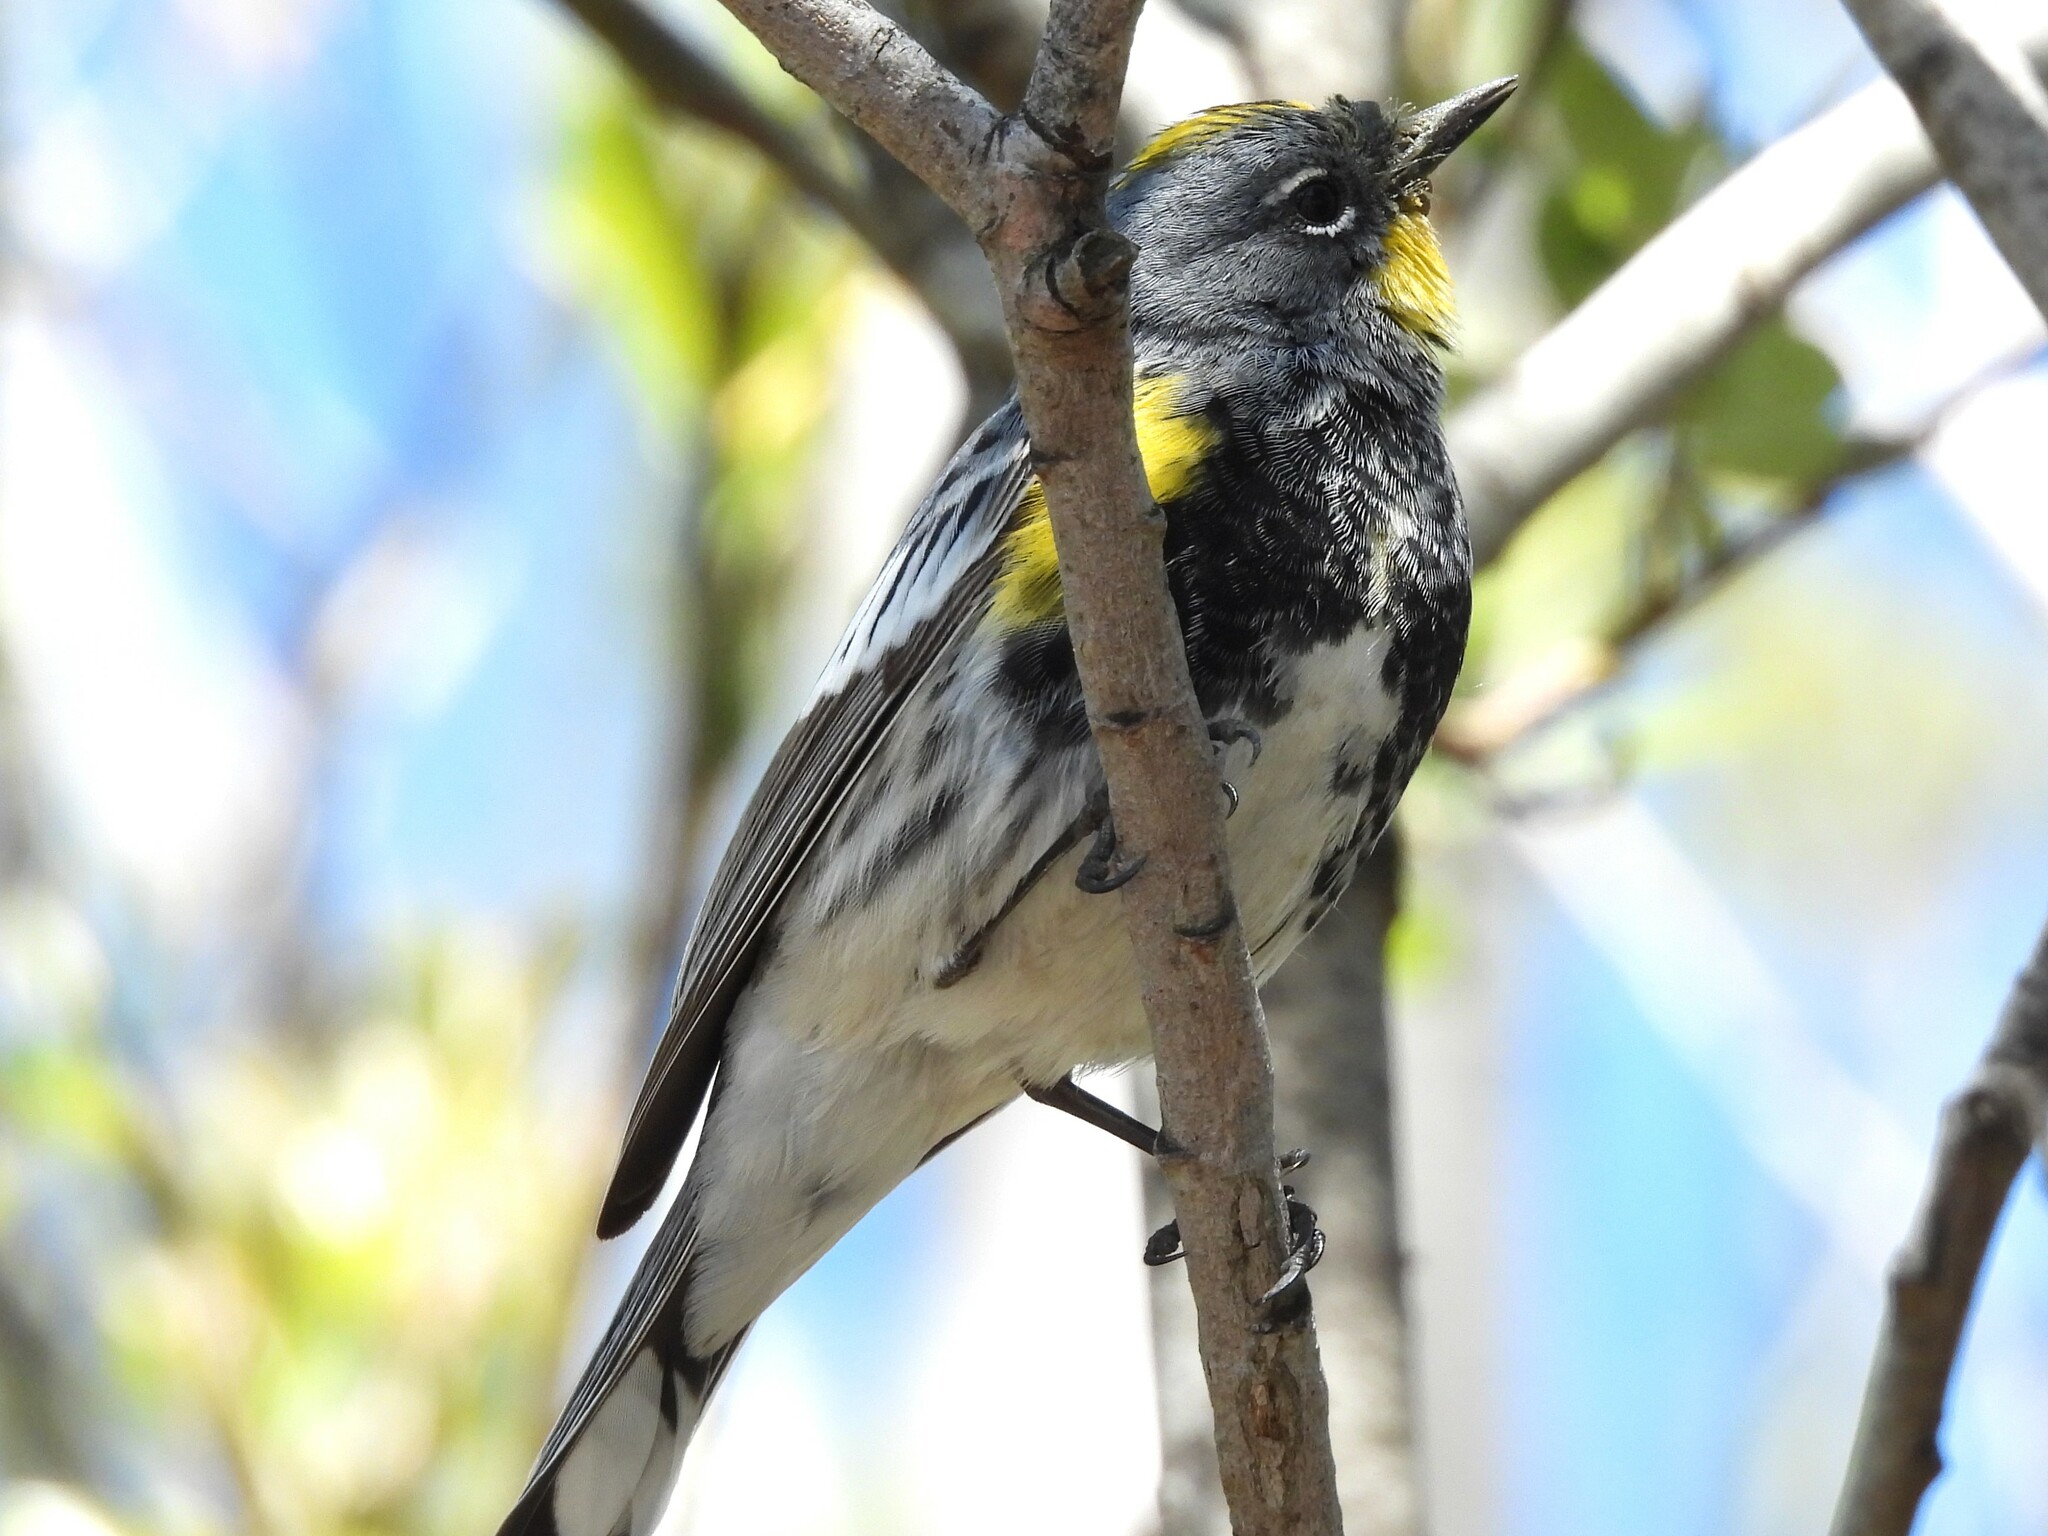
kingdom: Animalia
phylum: Chordata
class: Aves
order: Passeriformes
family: Parulidae
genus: Setophaga
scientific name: Setophaga coronata
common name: Myrtle warbler
